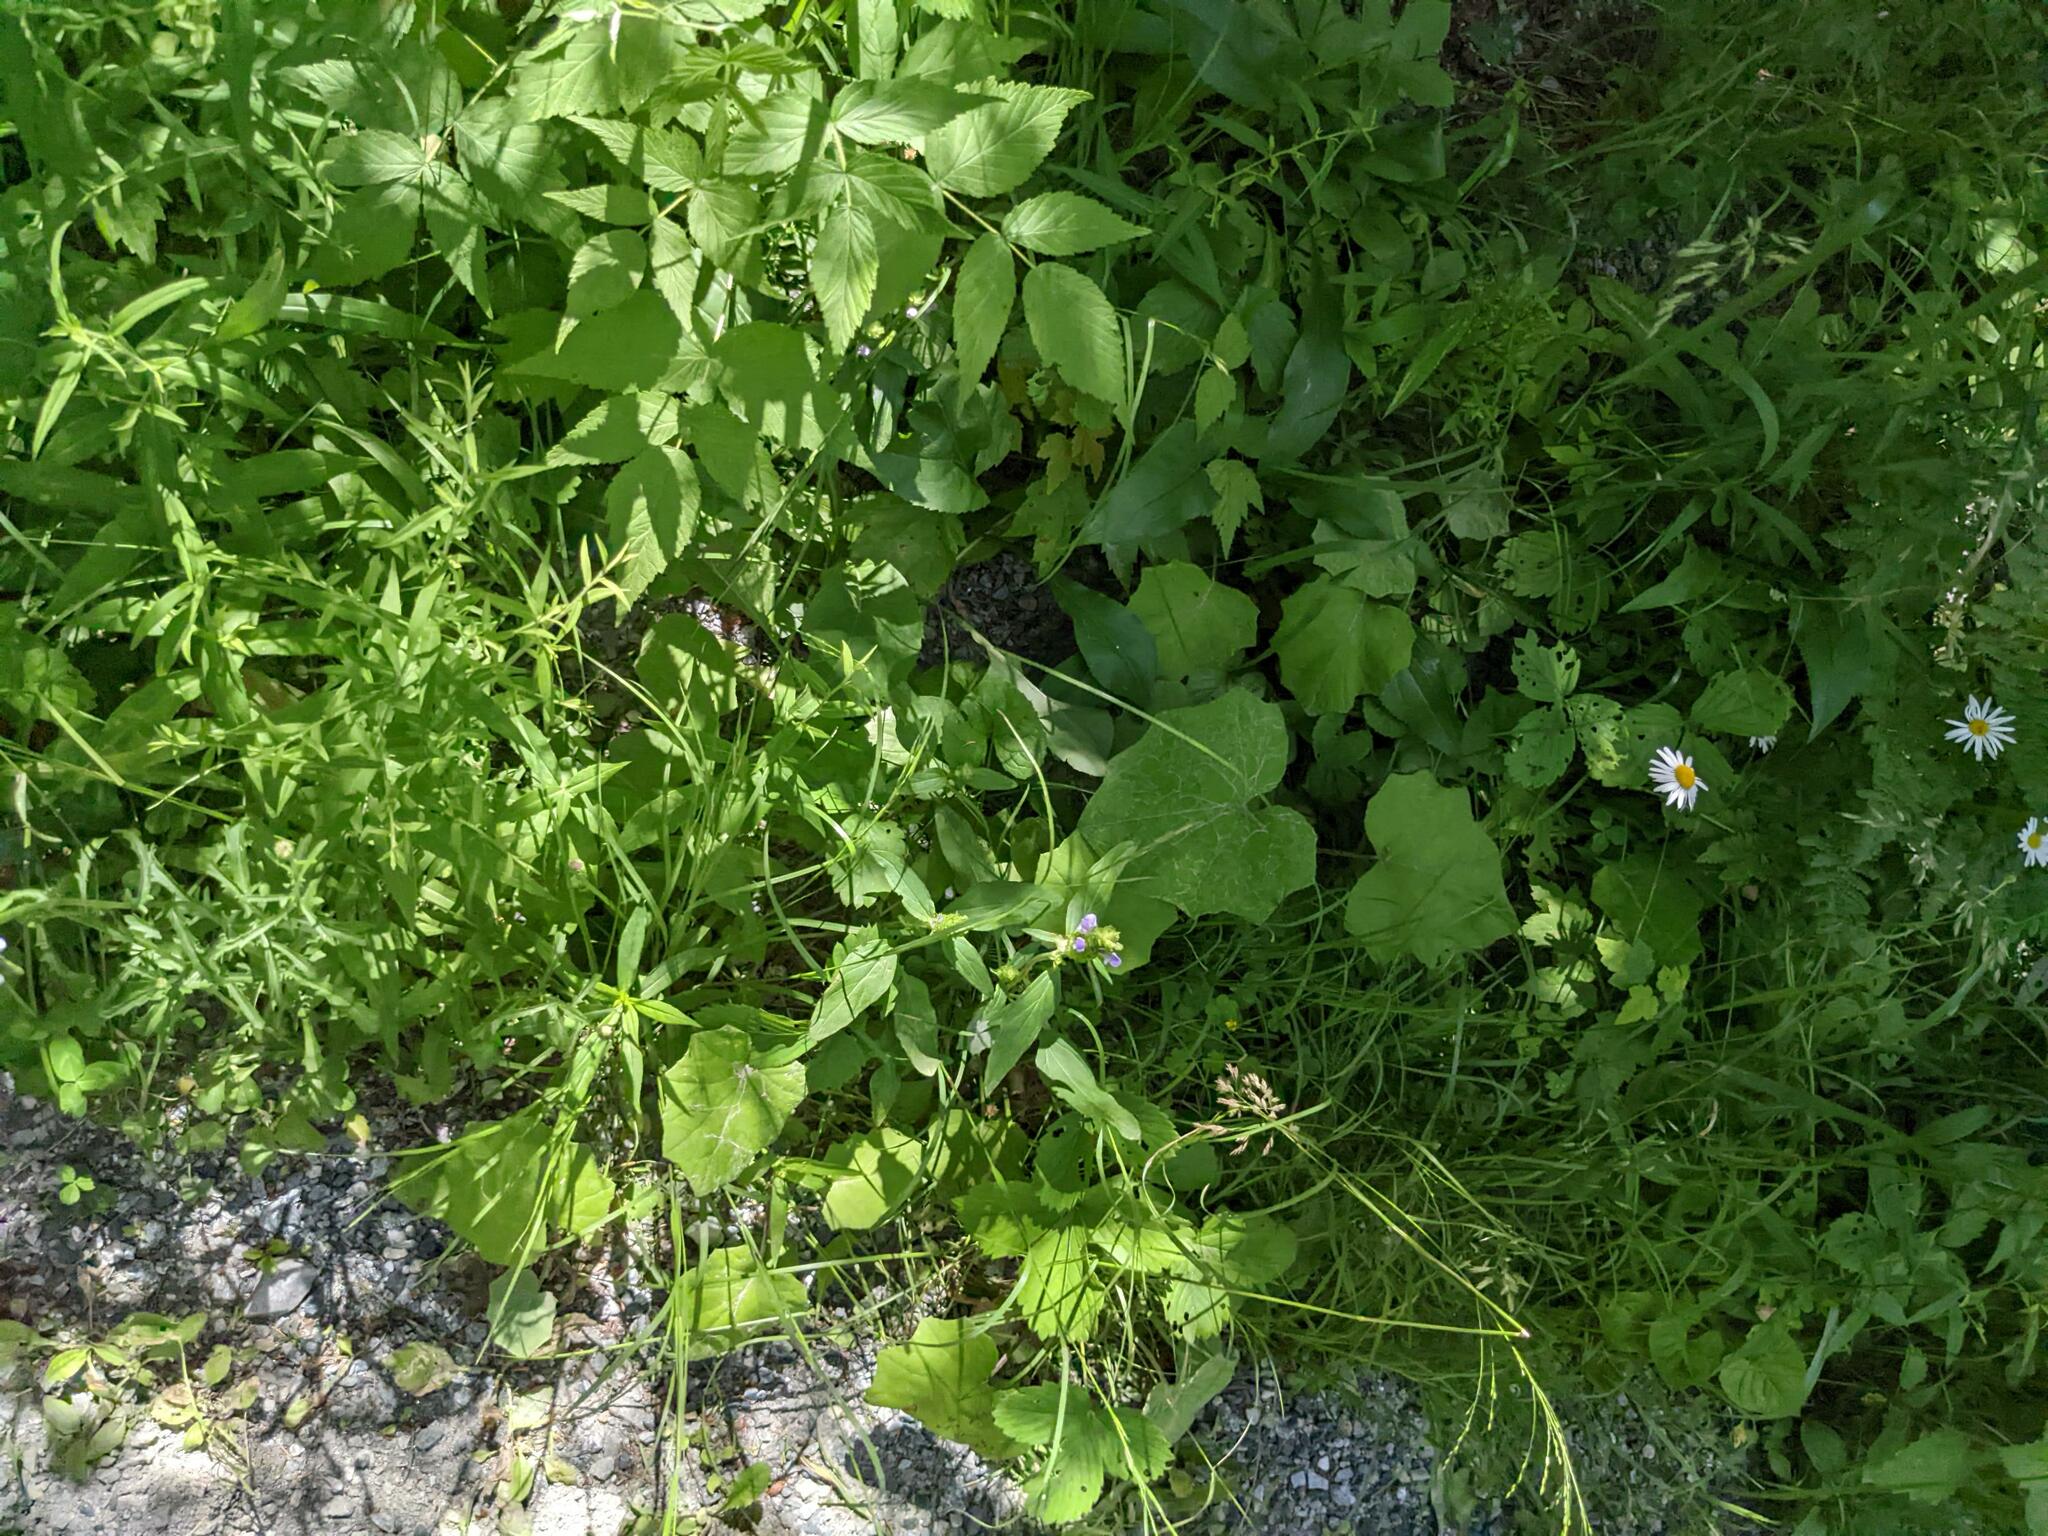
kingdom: Plantae
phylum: Tracheophyta
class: Magnoliopsida
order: Asterales
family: Asteraceae
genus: Tussilago
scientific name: Tussilago farfara
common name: Coltsfoot
